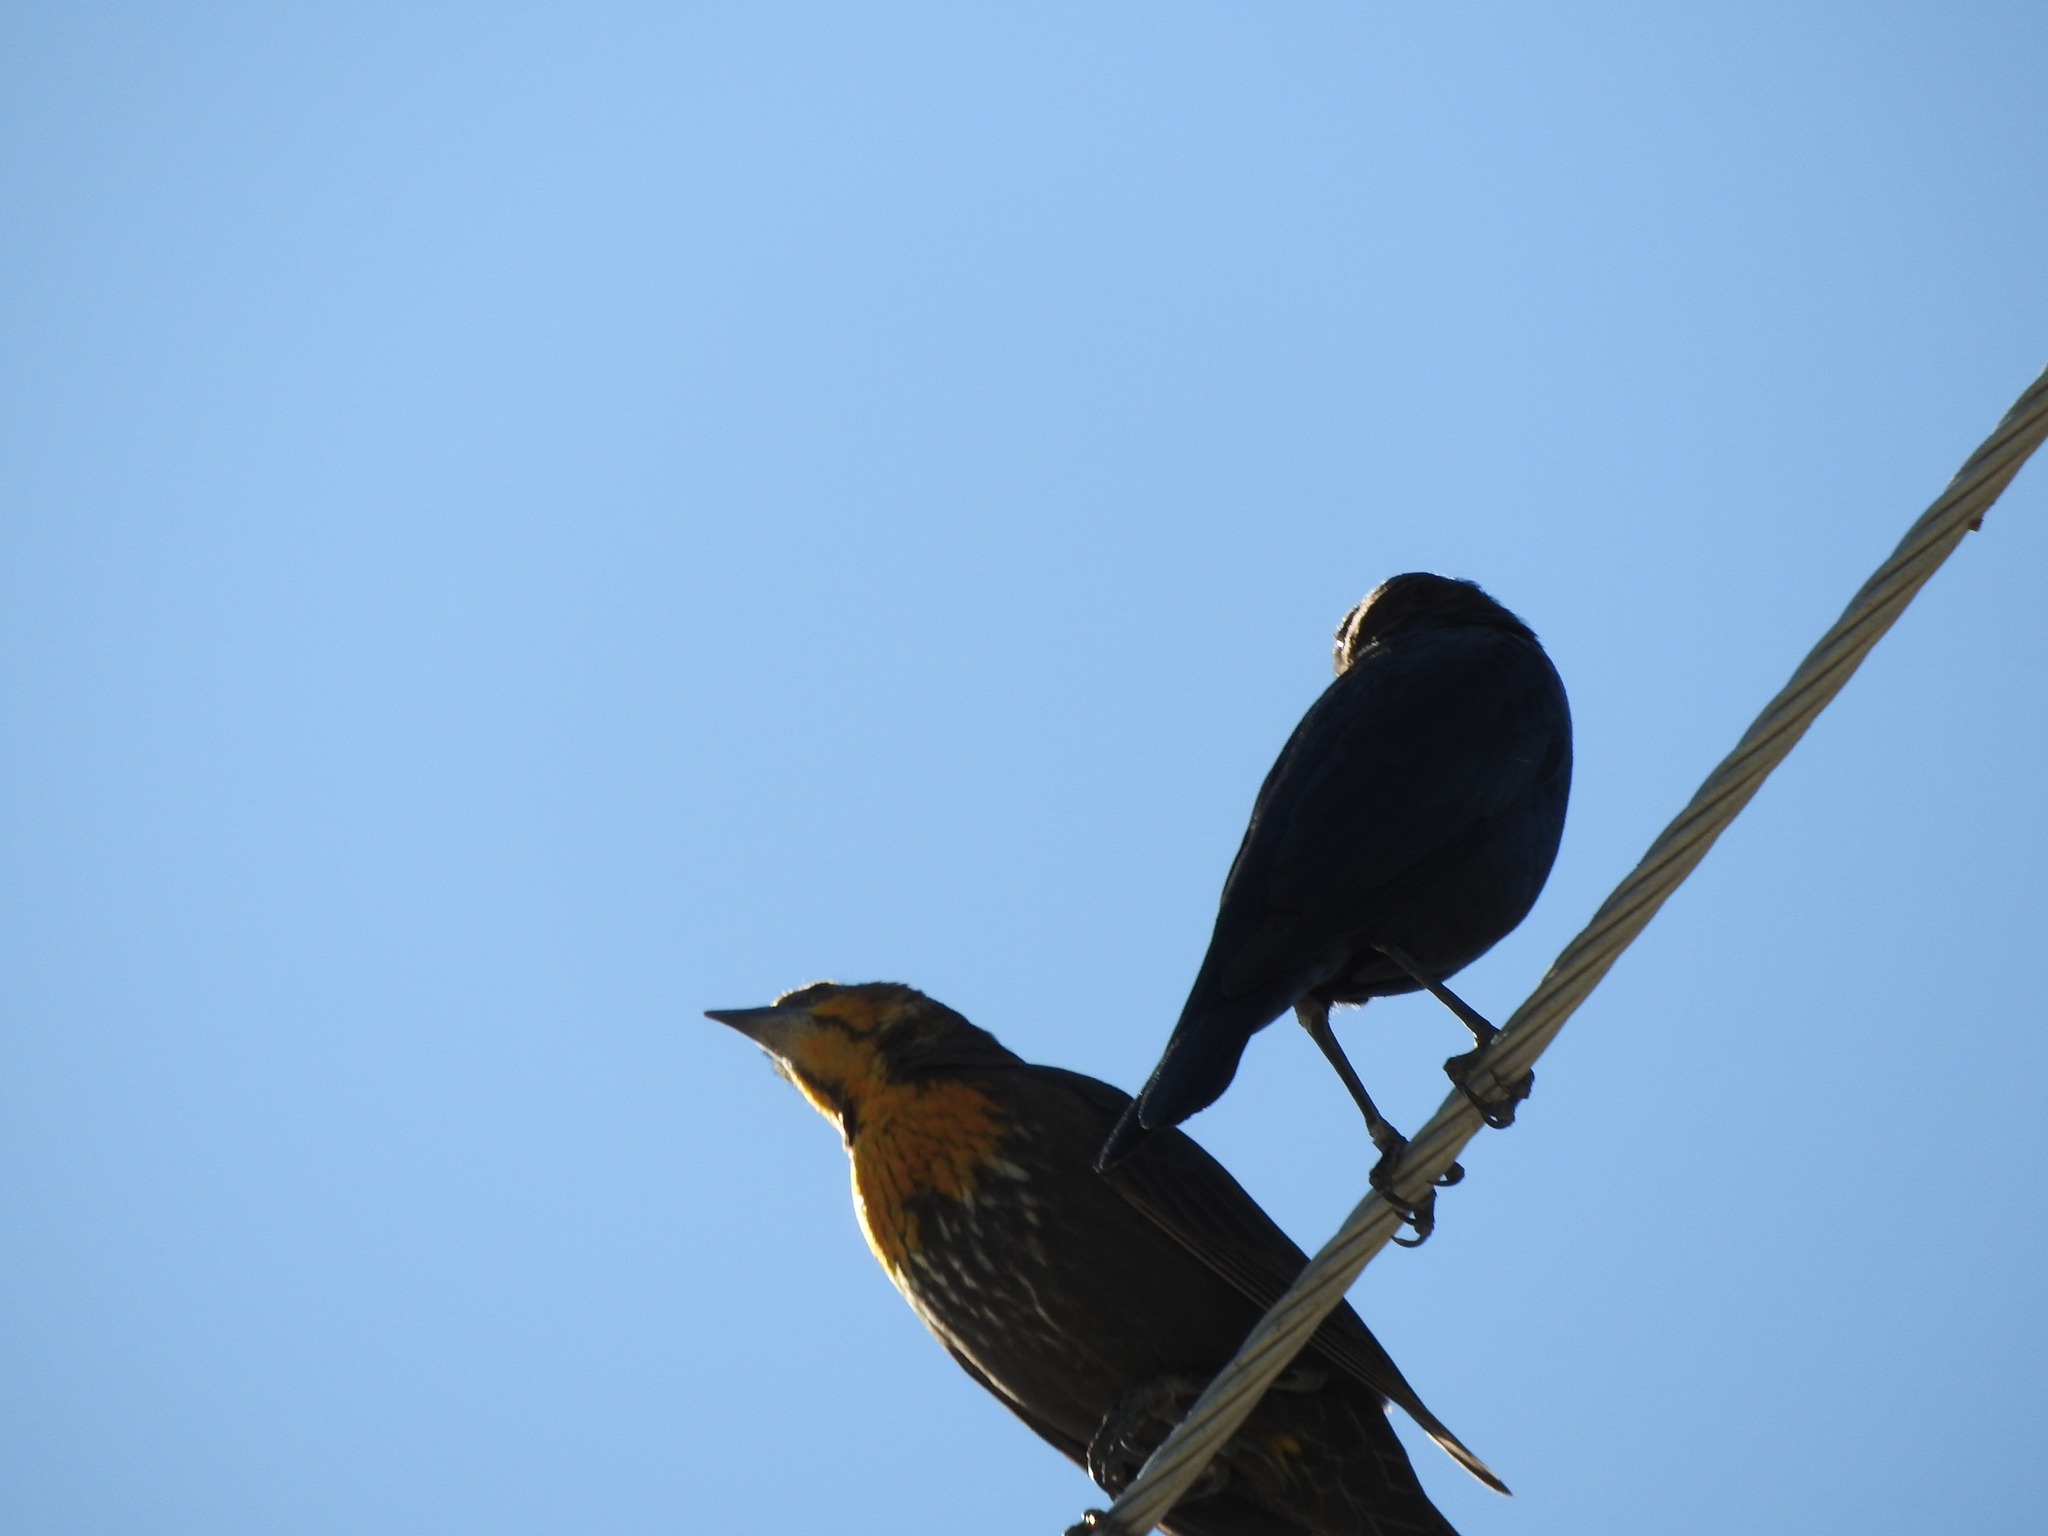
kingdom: Animalia
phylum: Chordata
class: Aves
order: Passeriformes
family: Icteridae
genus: Molothrus
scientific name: Molothrus ater
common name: Brown-headed cowbird
